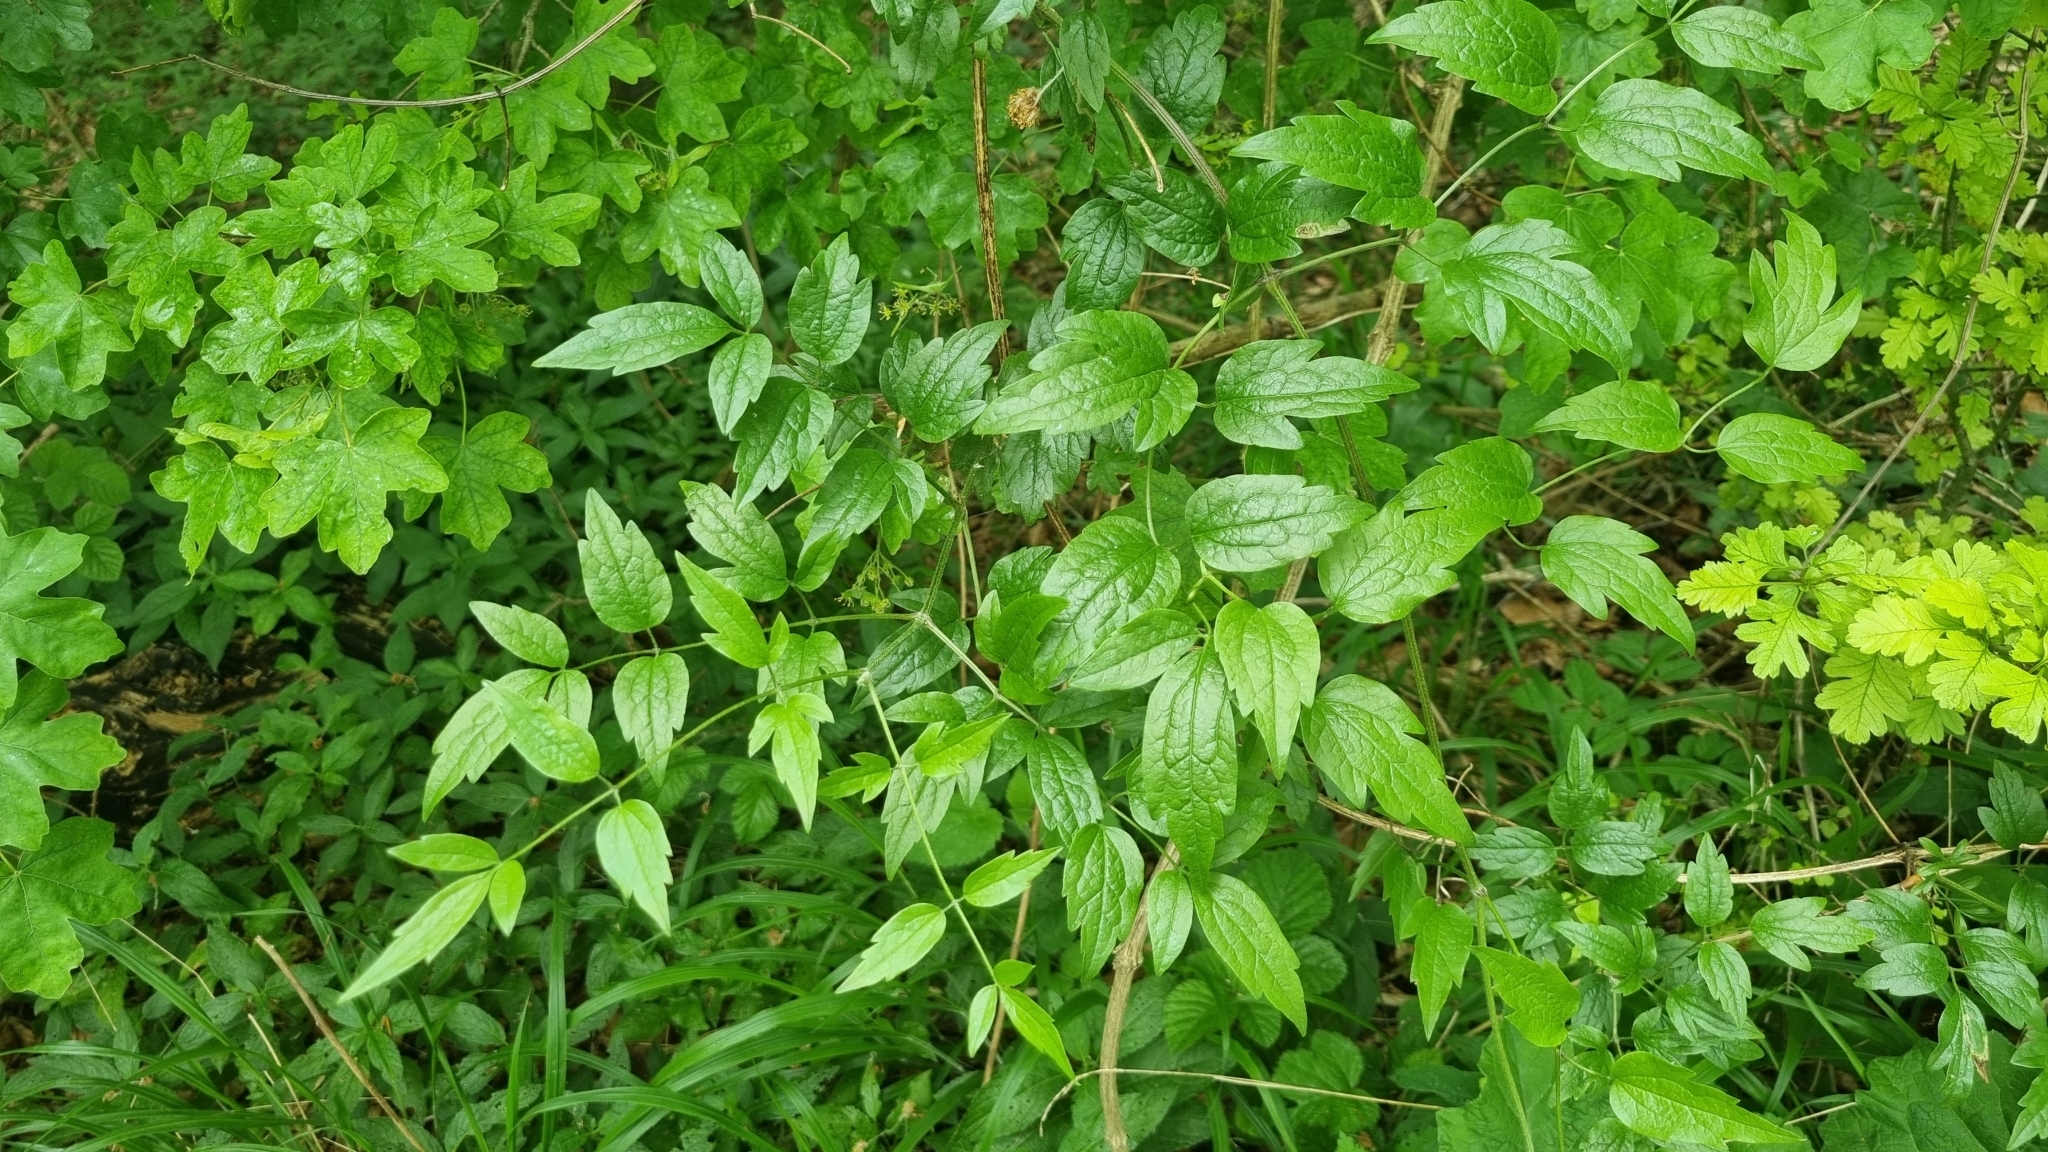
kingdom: Plantae
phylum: Tracheophyta
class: Magnoliopsida
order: Ranunculales
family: Ranunculaceae
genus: Clematis
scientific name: Clematis vitalba
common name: Evergreen clematis
